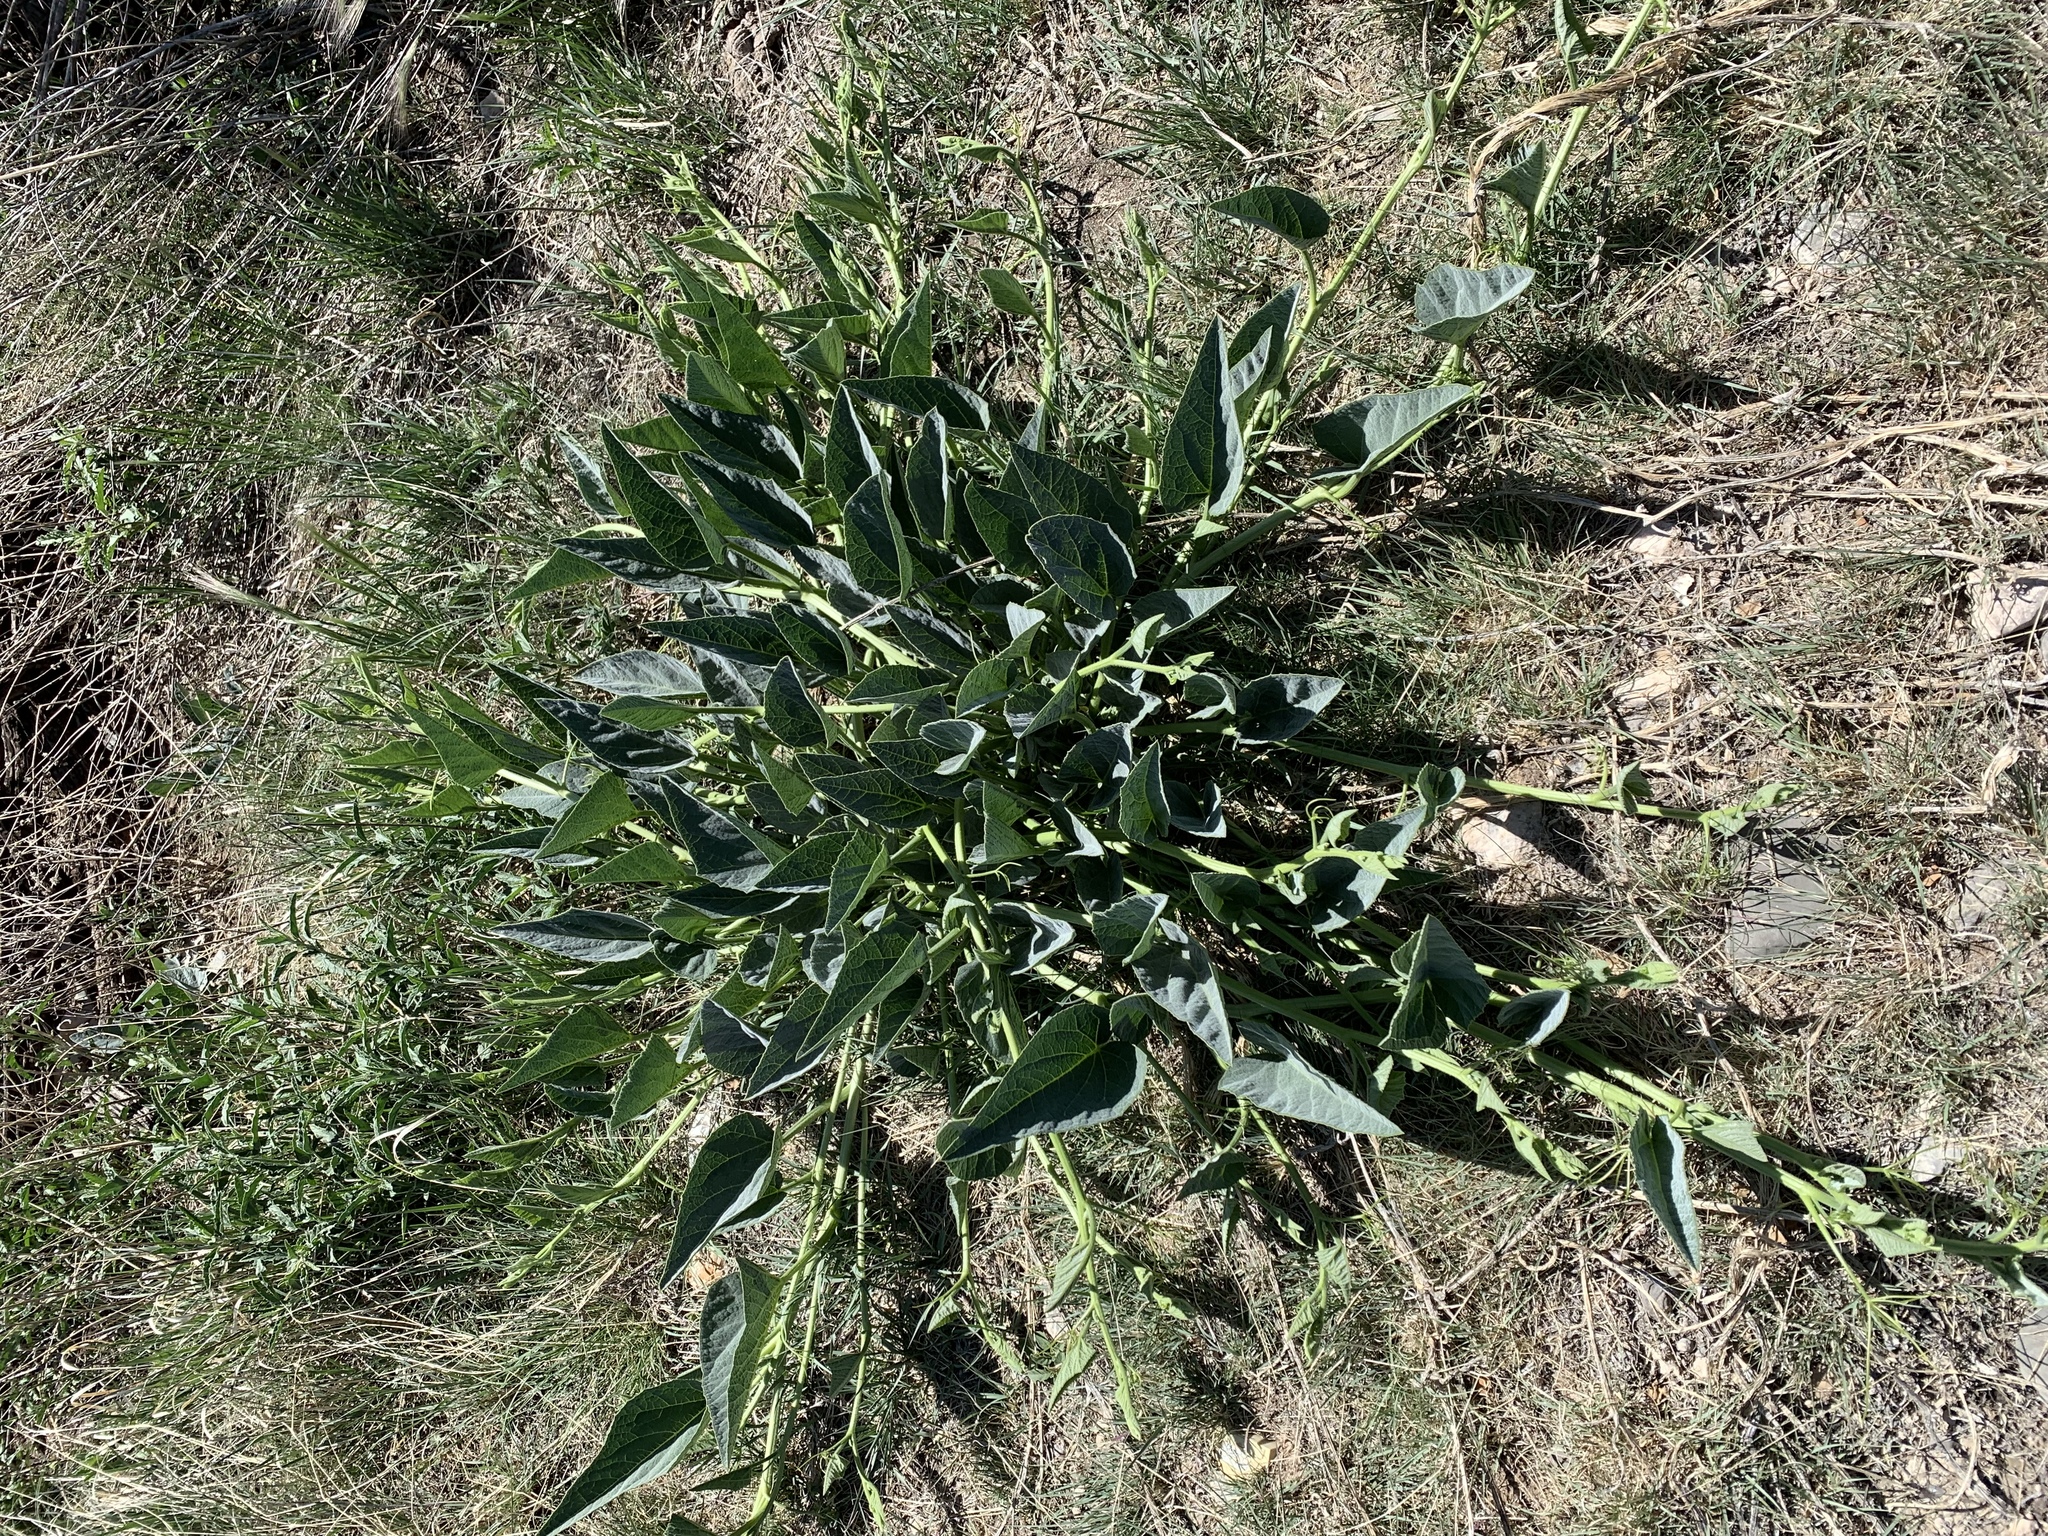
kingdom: Plantae
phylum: Tracheophyta
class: Magnoliopsida
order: Cucurbitales
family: Cucurbitaceae
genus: Cucurbita
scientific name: Cucurbita foetidissima
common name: Buffalo gourd
